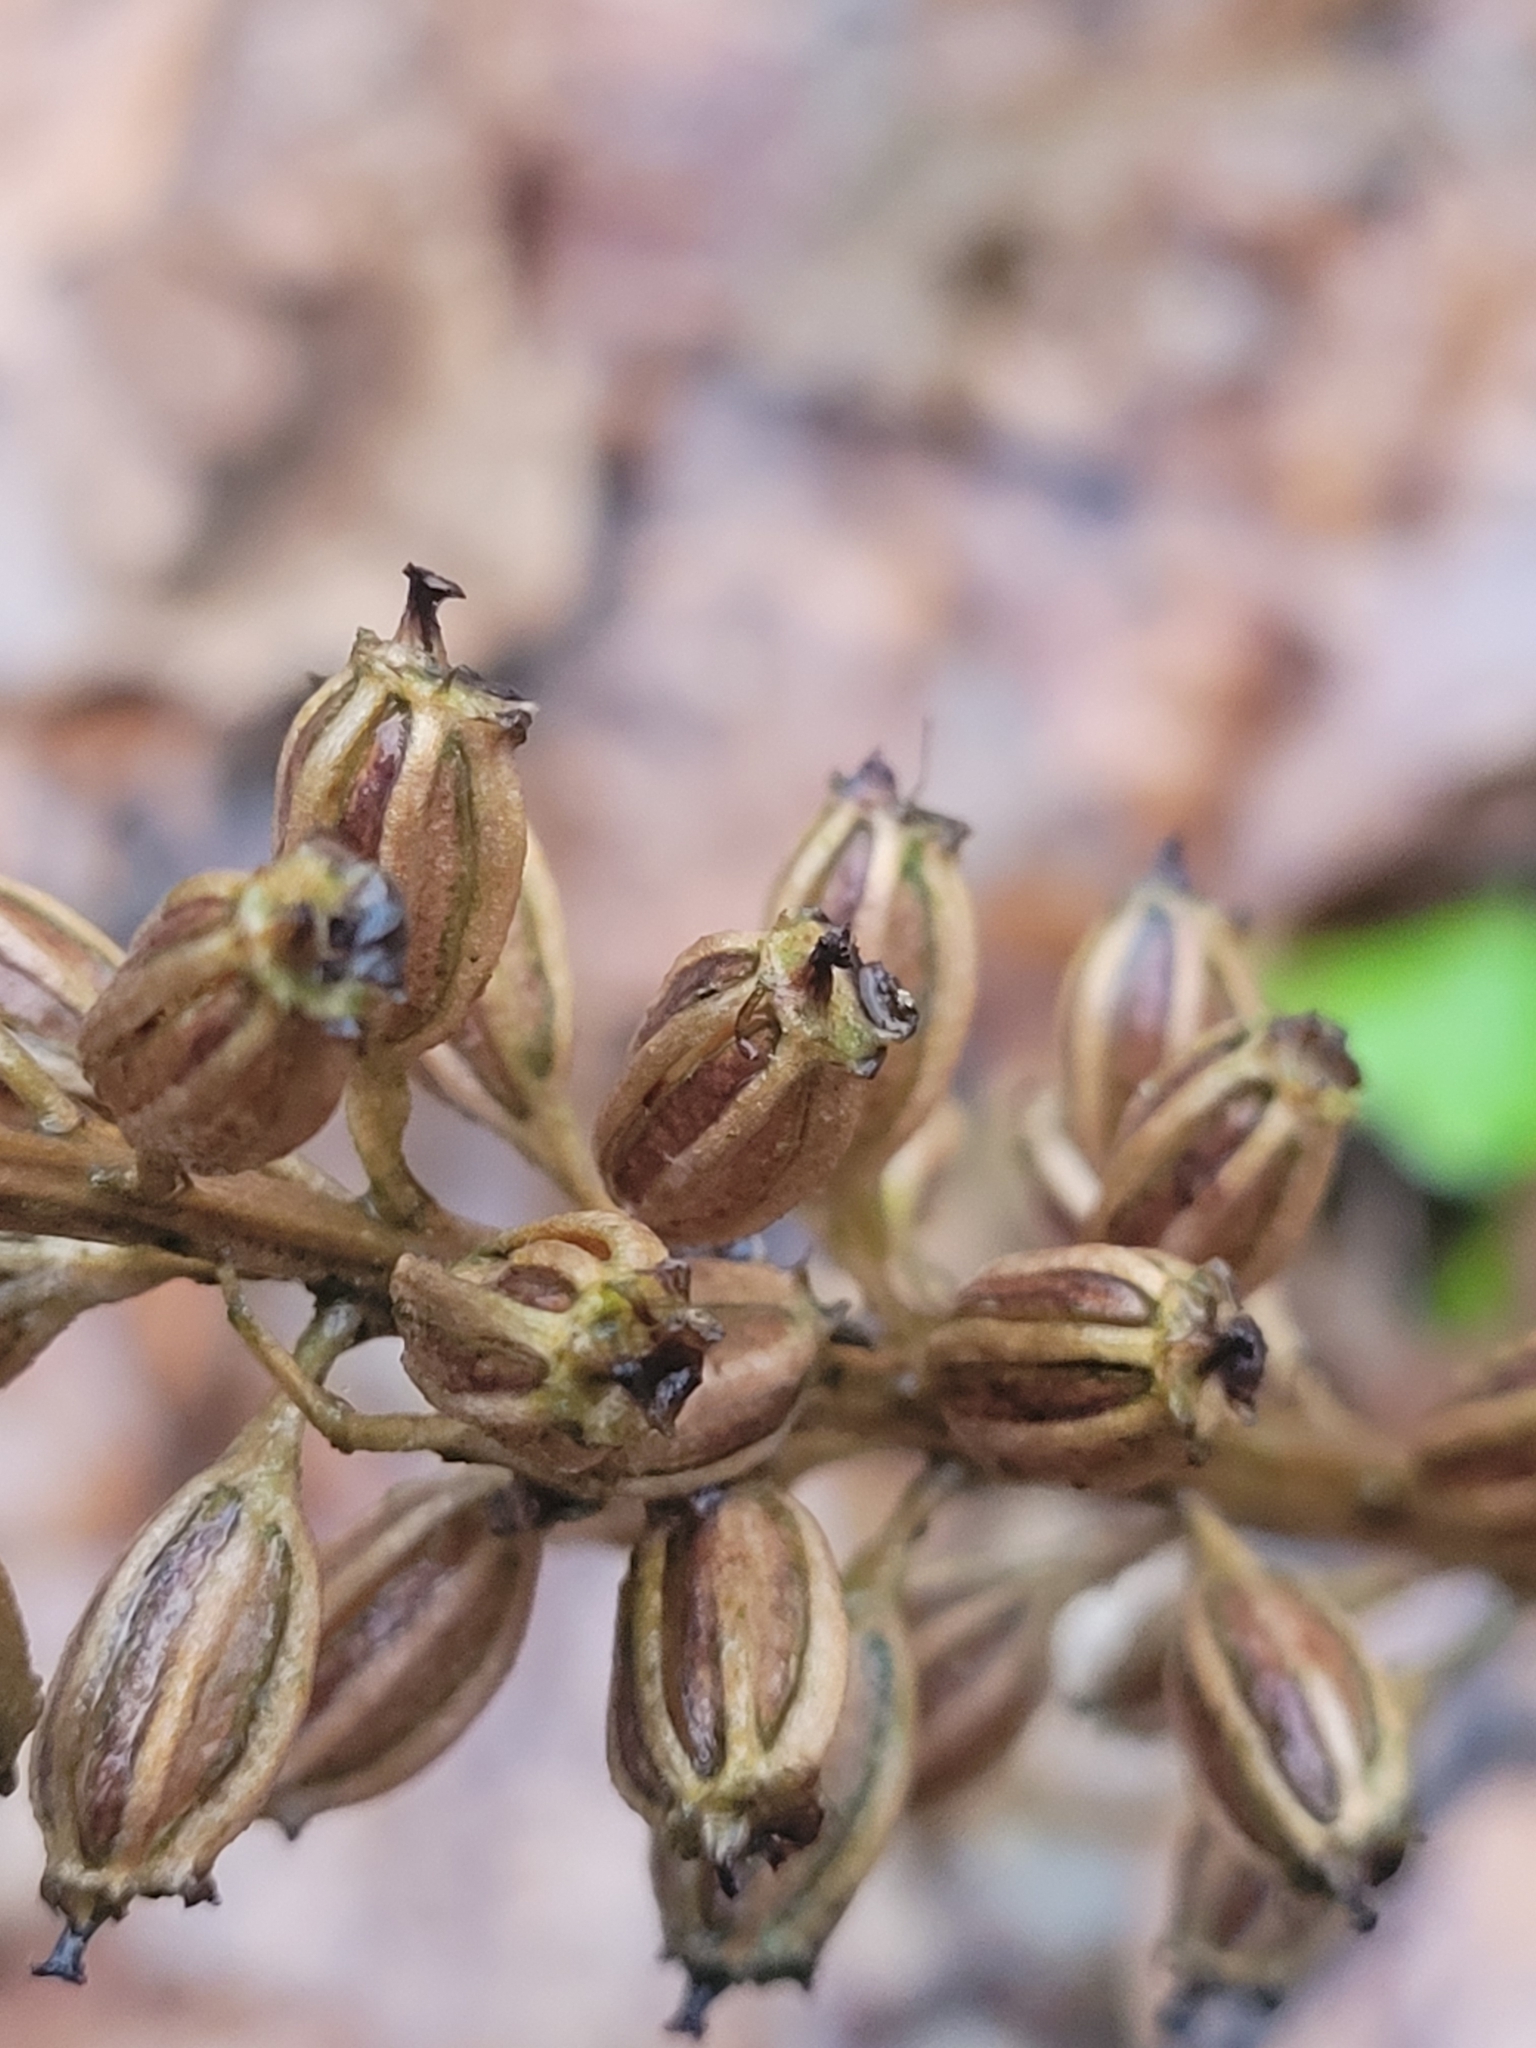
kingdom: Plantae
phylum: Tracheophyta
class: Liliopsida
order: Asparagales
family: Orchidaceae
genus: Neottia
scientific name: Neottia nidus-avis
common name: Bird's-nest orchid
